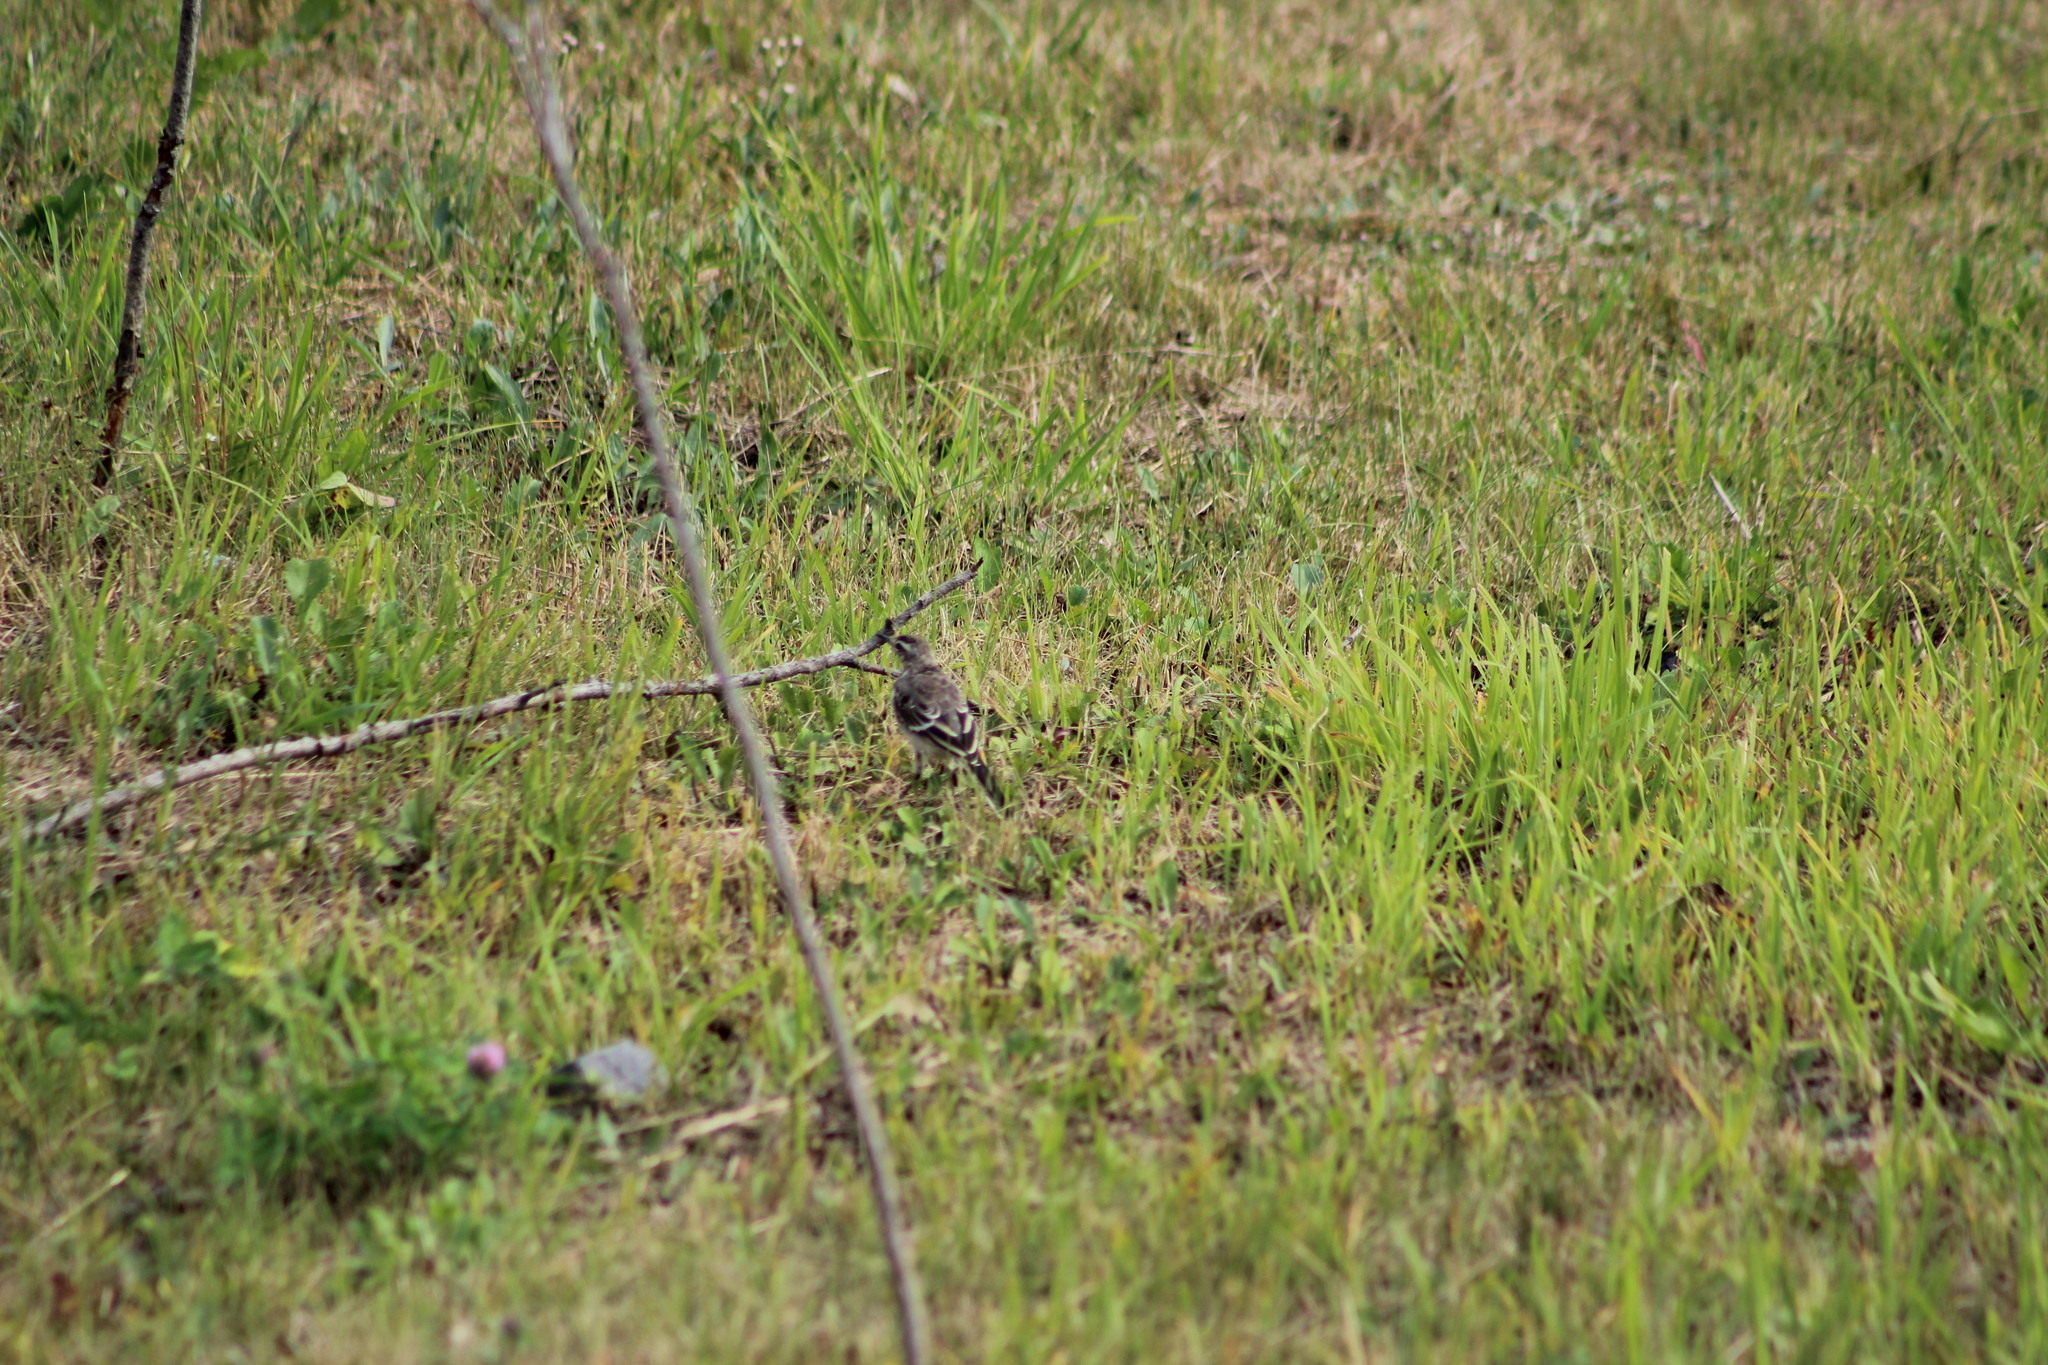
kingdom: Animalia
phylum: Chordata
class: Aves
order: Passeriformes
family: Motacillidae
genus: Motacilla
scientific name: Motacilla alba
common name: White wagtail
